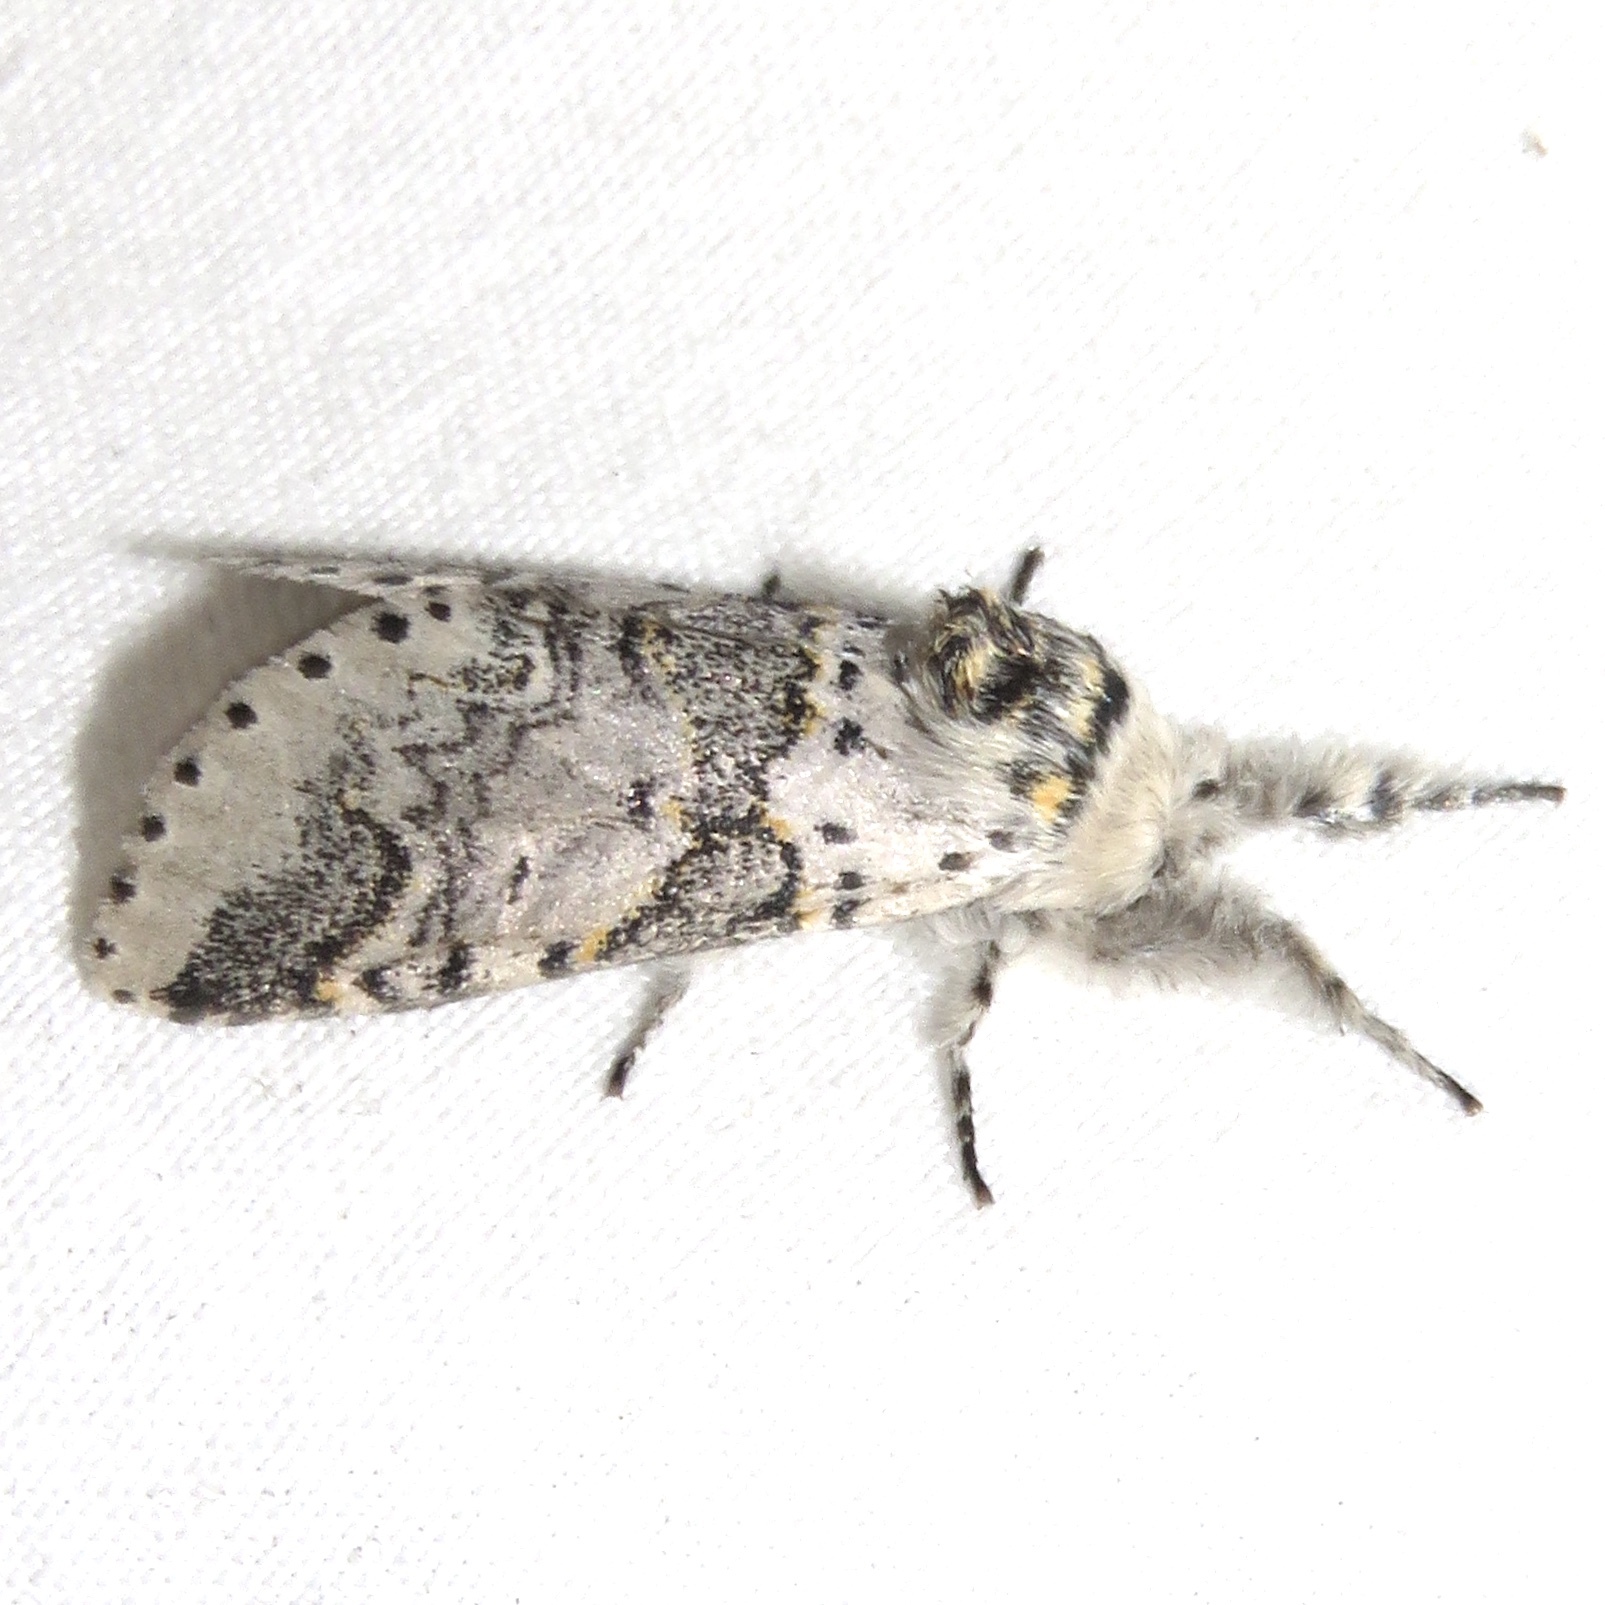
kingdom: Animalia
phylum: Arthropoda
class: Insecta
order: Lepidoptera
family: Notodontidae
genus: Furcula
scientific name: Furcula occidentalis
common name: Western furcula moth
